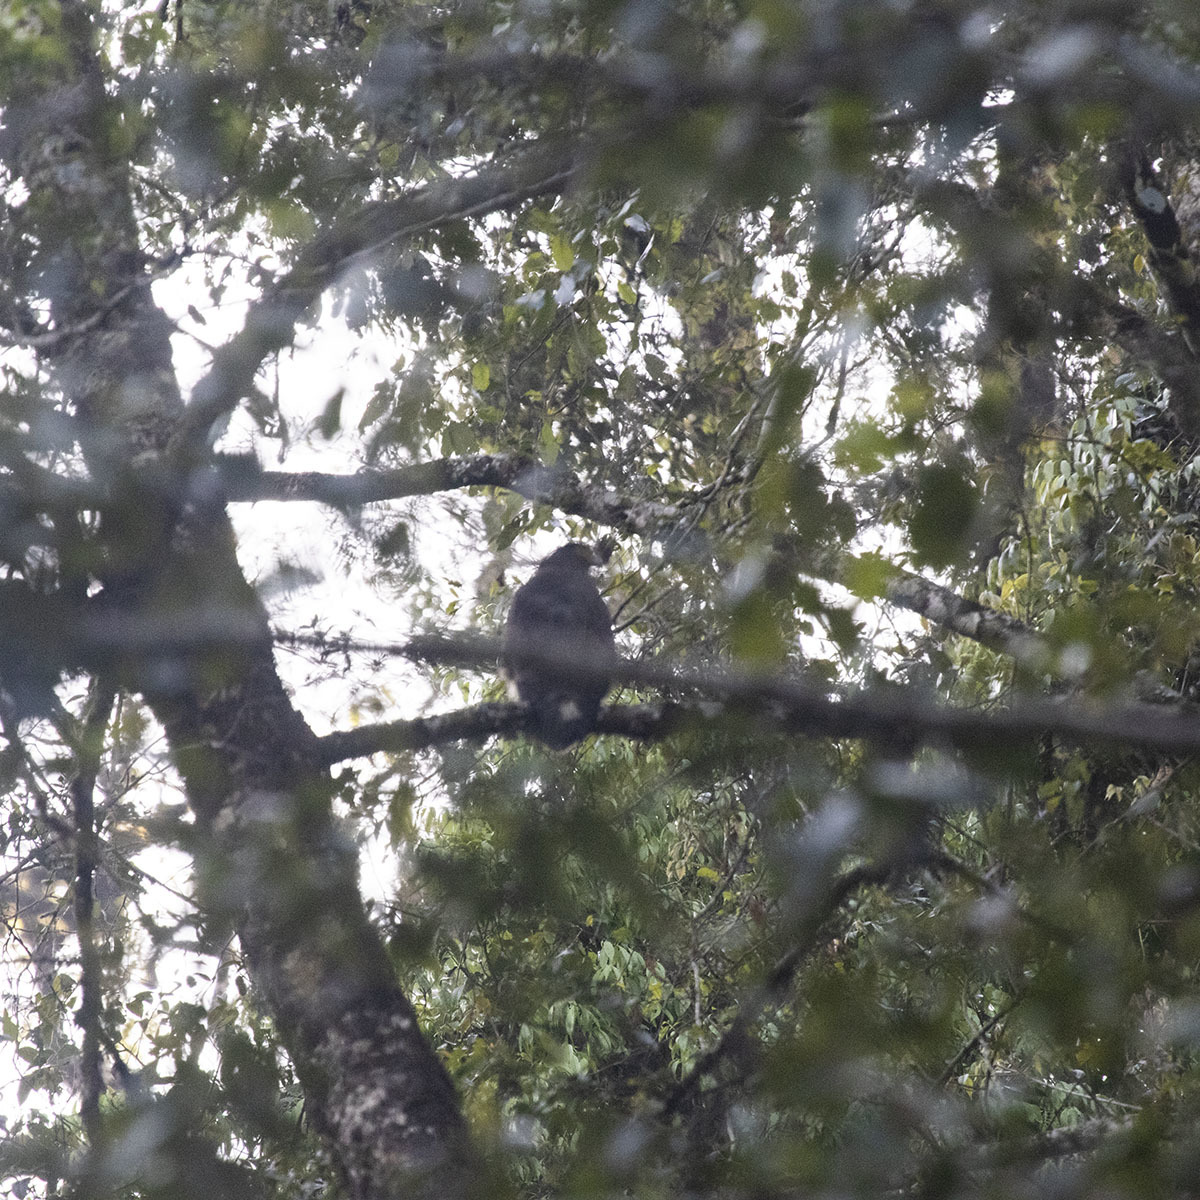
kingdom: Animalia
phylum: Chordata
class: Aves
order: Accipitriformes
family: Accipitridae
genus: Spilornis
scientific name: Spilornis cheela
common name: Crested serpent eagle
